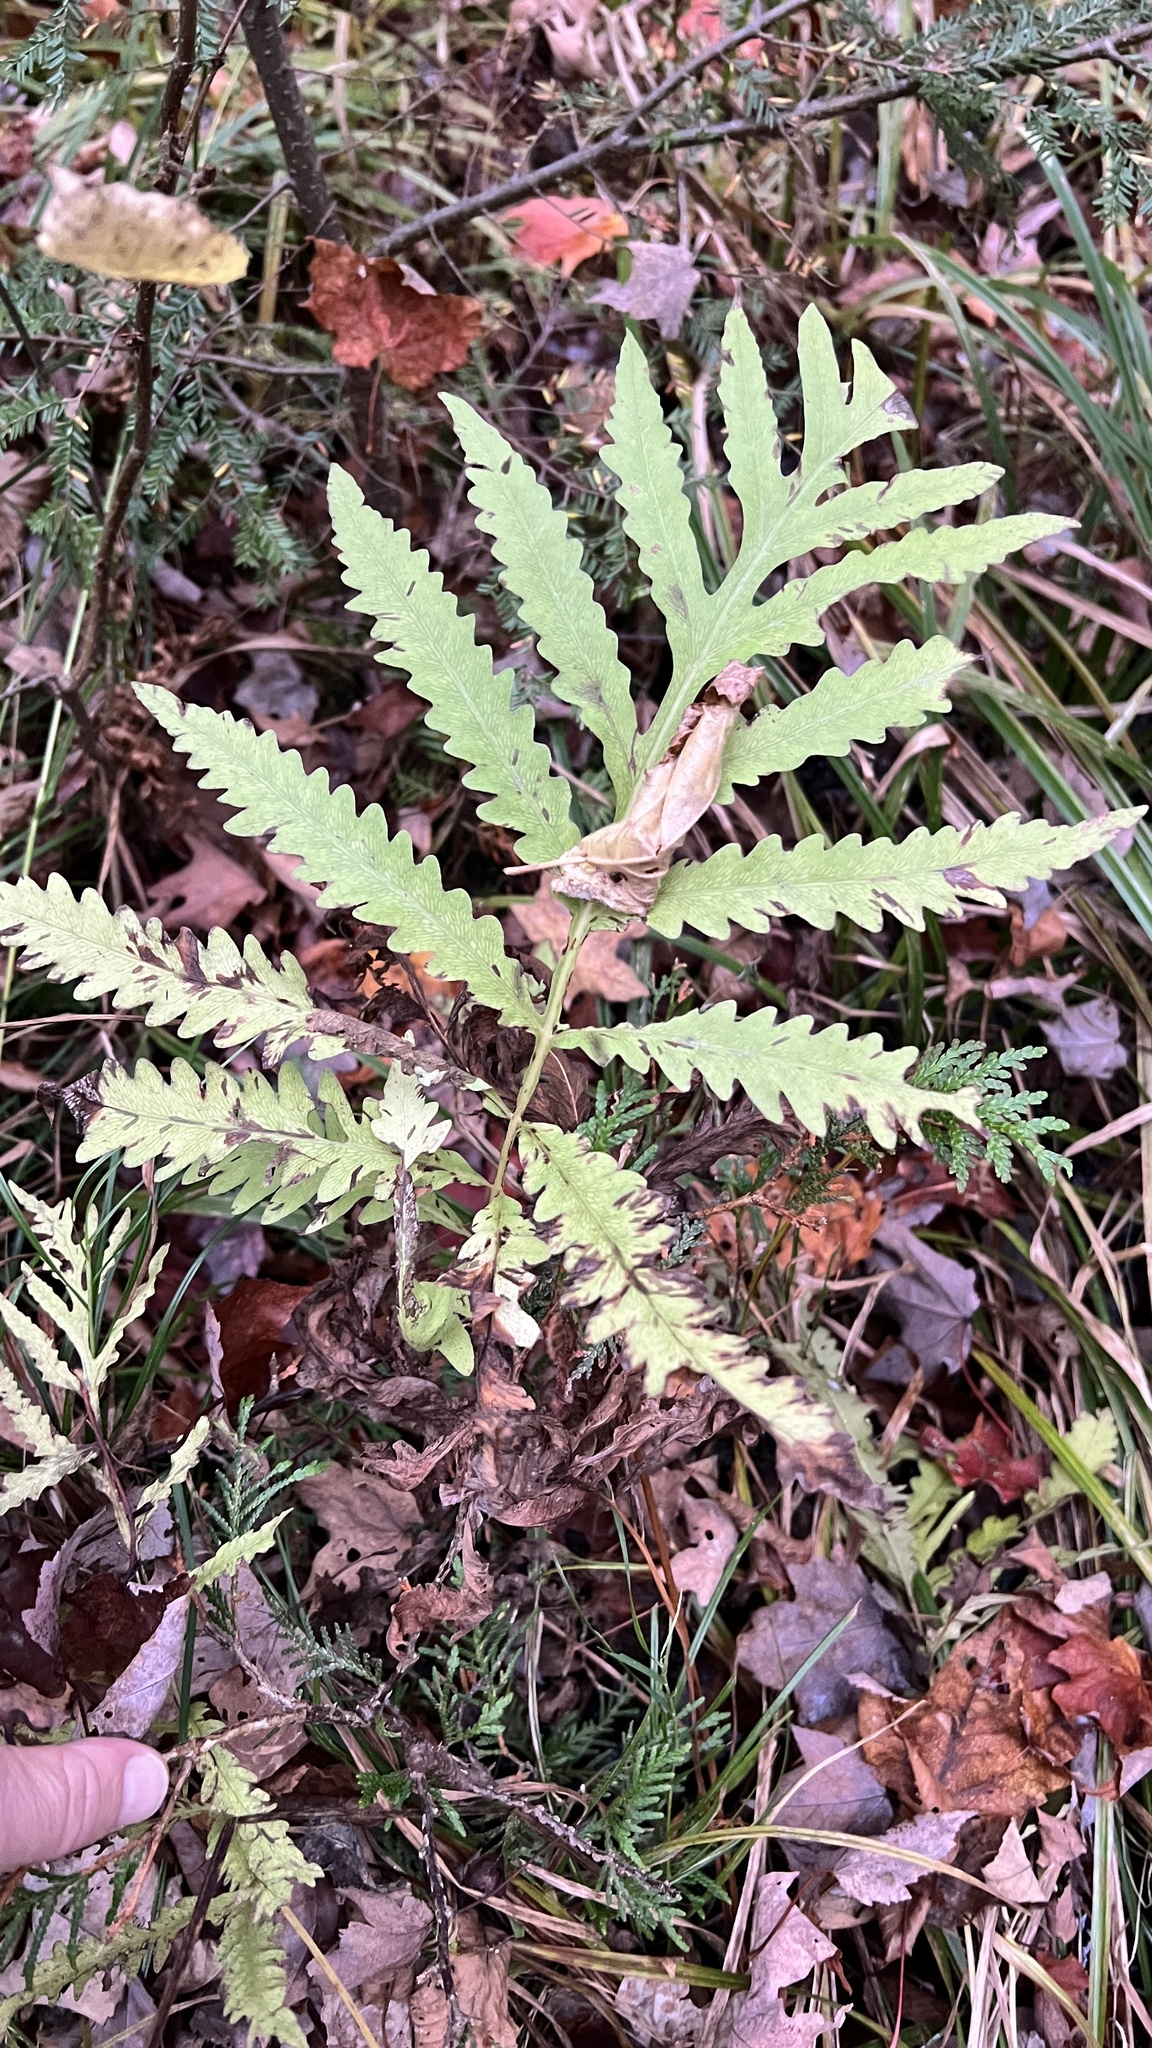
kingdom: Plantae
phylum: Tracheophyta
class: Polypodiopsida
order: Polypodiales
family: Onocleaceae
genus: Onoclea
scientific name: Onoclea sensibilis
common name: Sensitive fern
